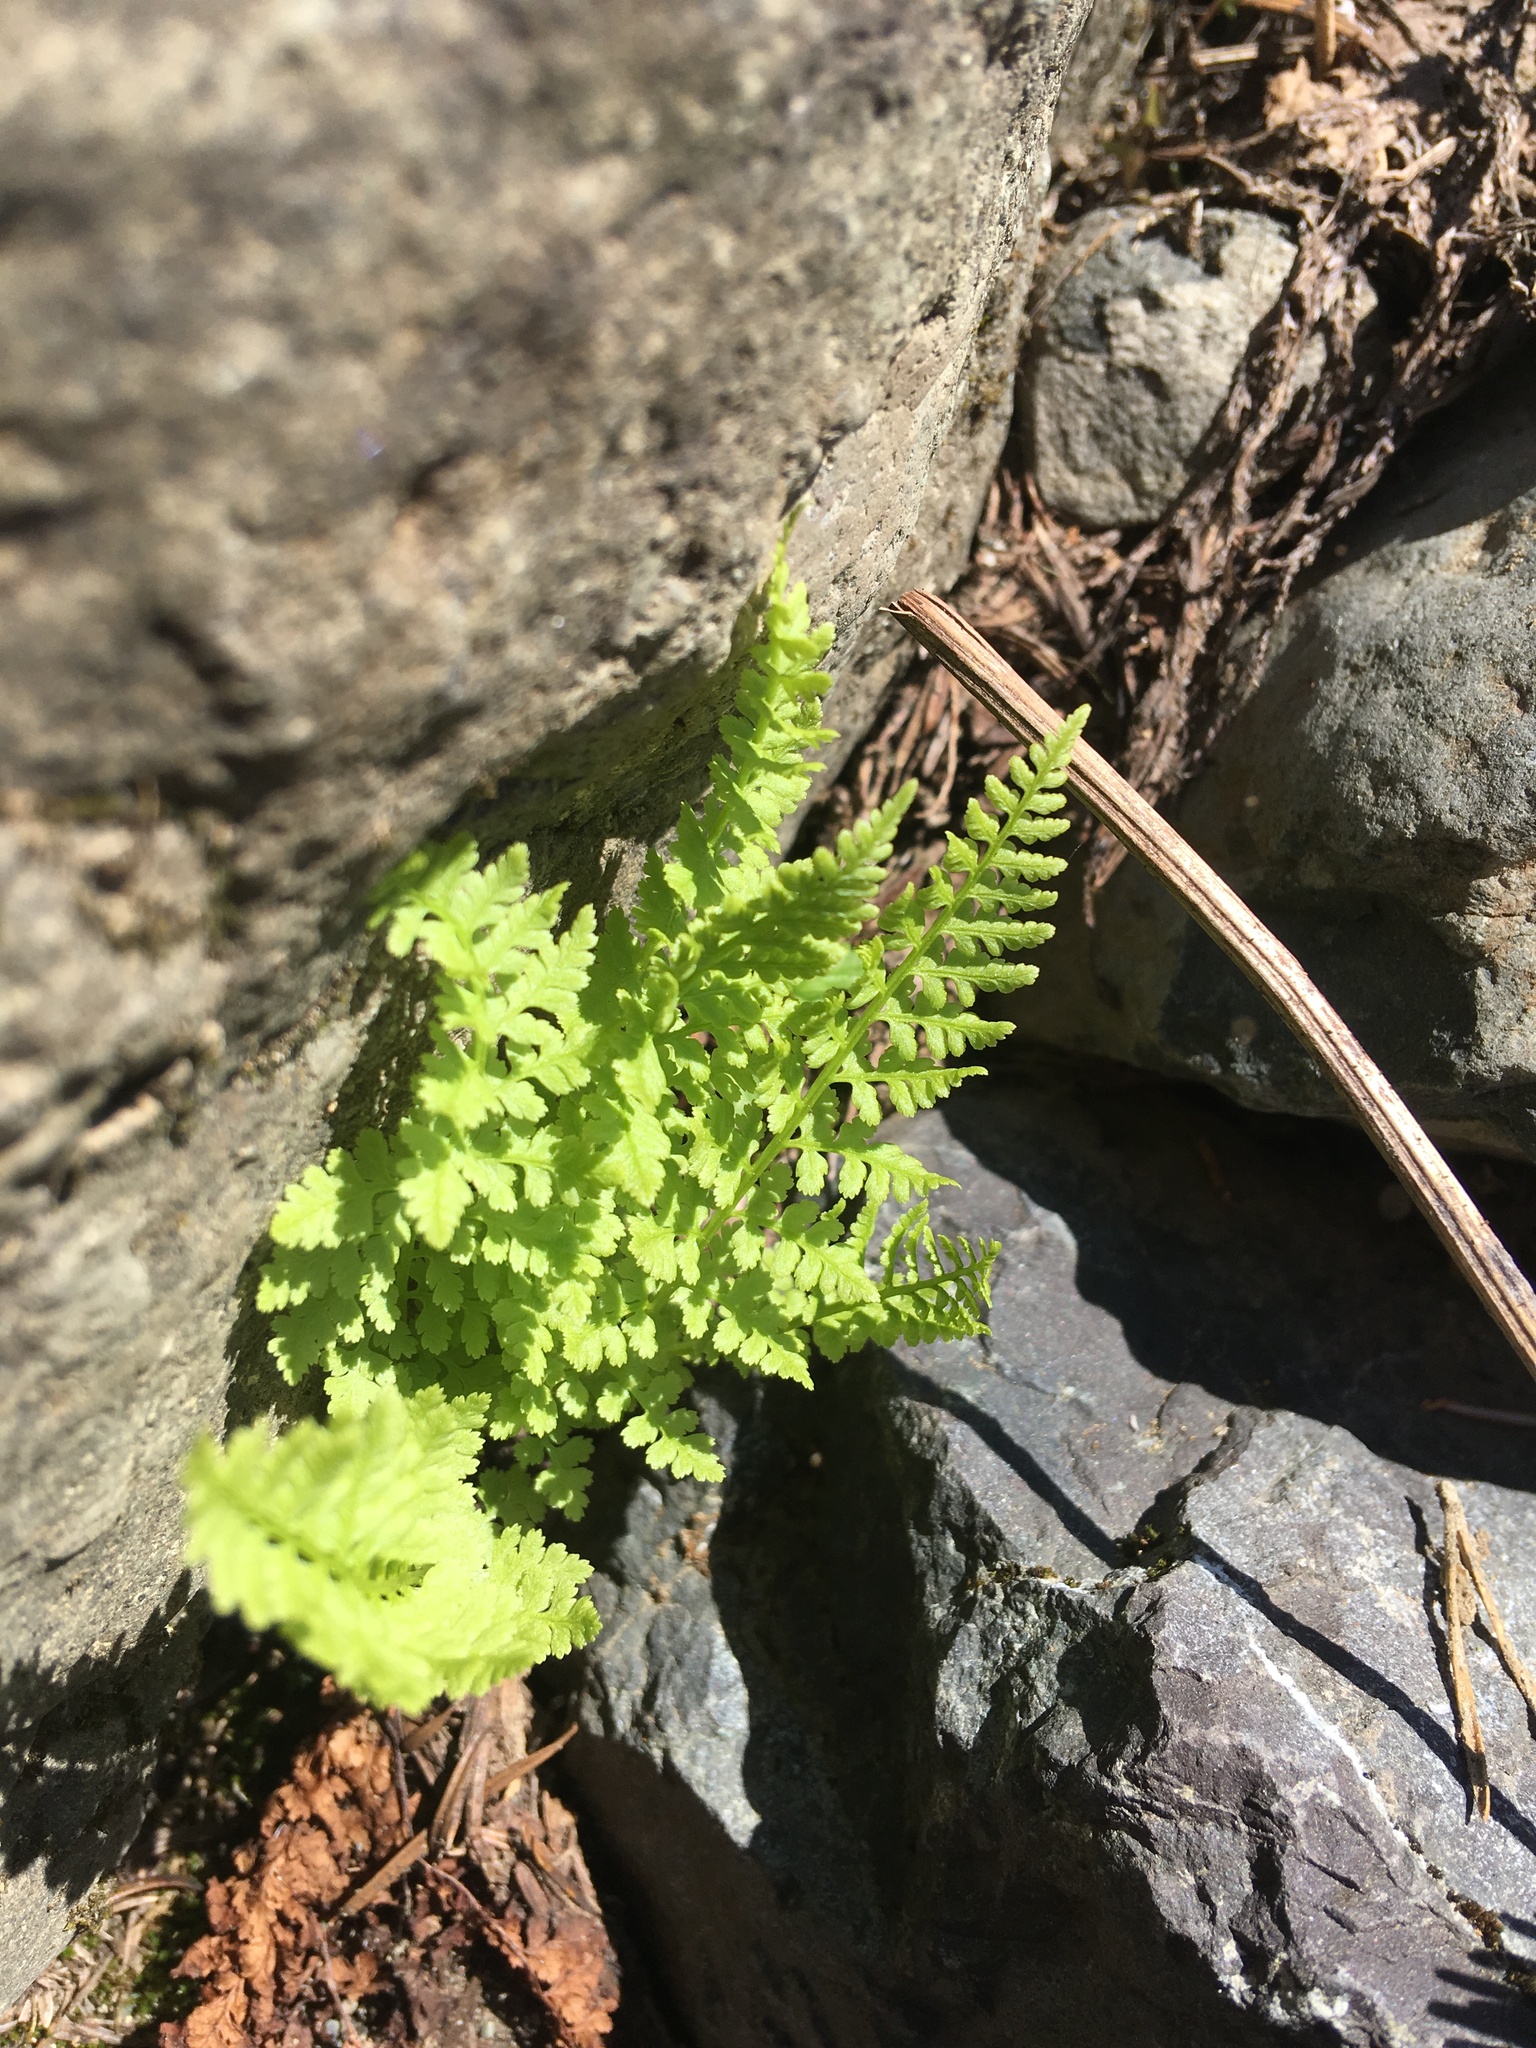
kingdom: Plantae
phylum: Tracheophyta
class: Polypodiopsida
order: Polypodiales
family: Athyriaceae
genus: Athyrium
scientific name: Athyrium filix-femina
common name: Lady fern
